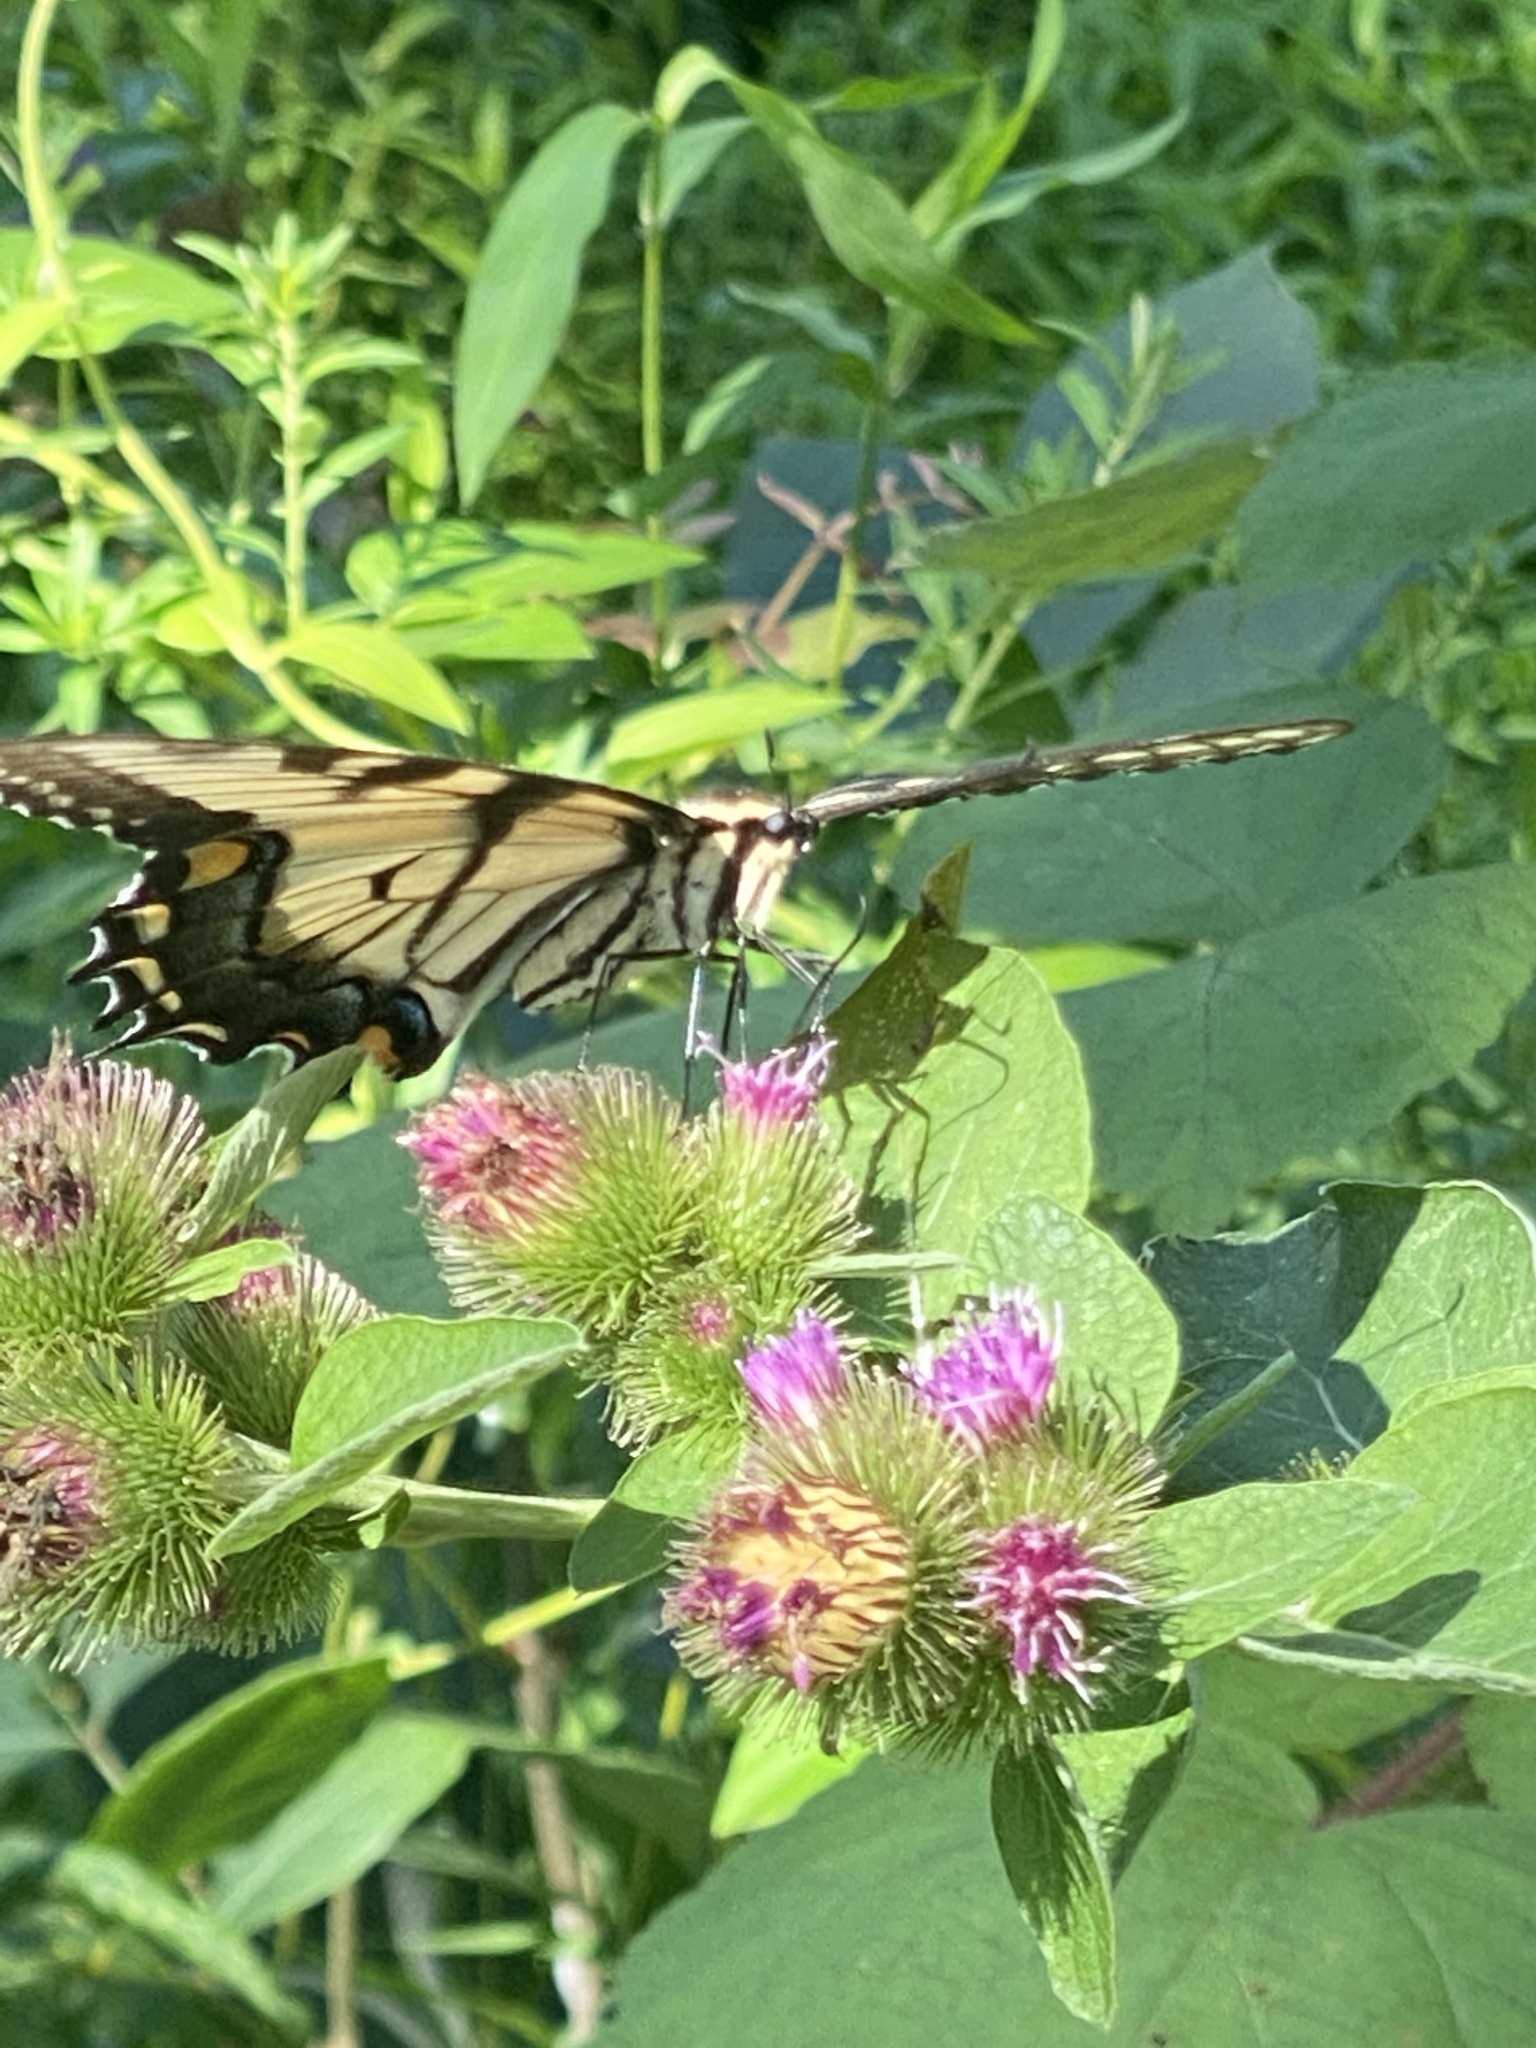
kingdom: Animalia
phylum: Arthropoda
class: Insecta
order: Lepidoptera
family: Papilionidae
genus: Papilio
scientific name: Papilio glaucus
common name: Tiger swallowtail
